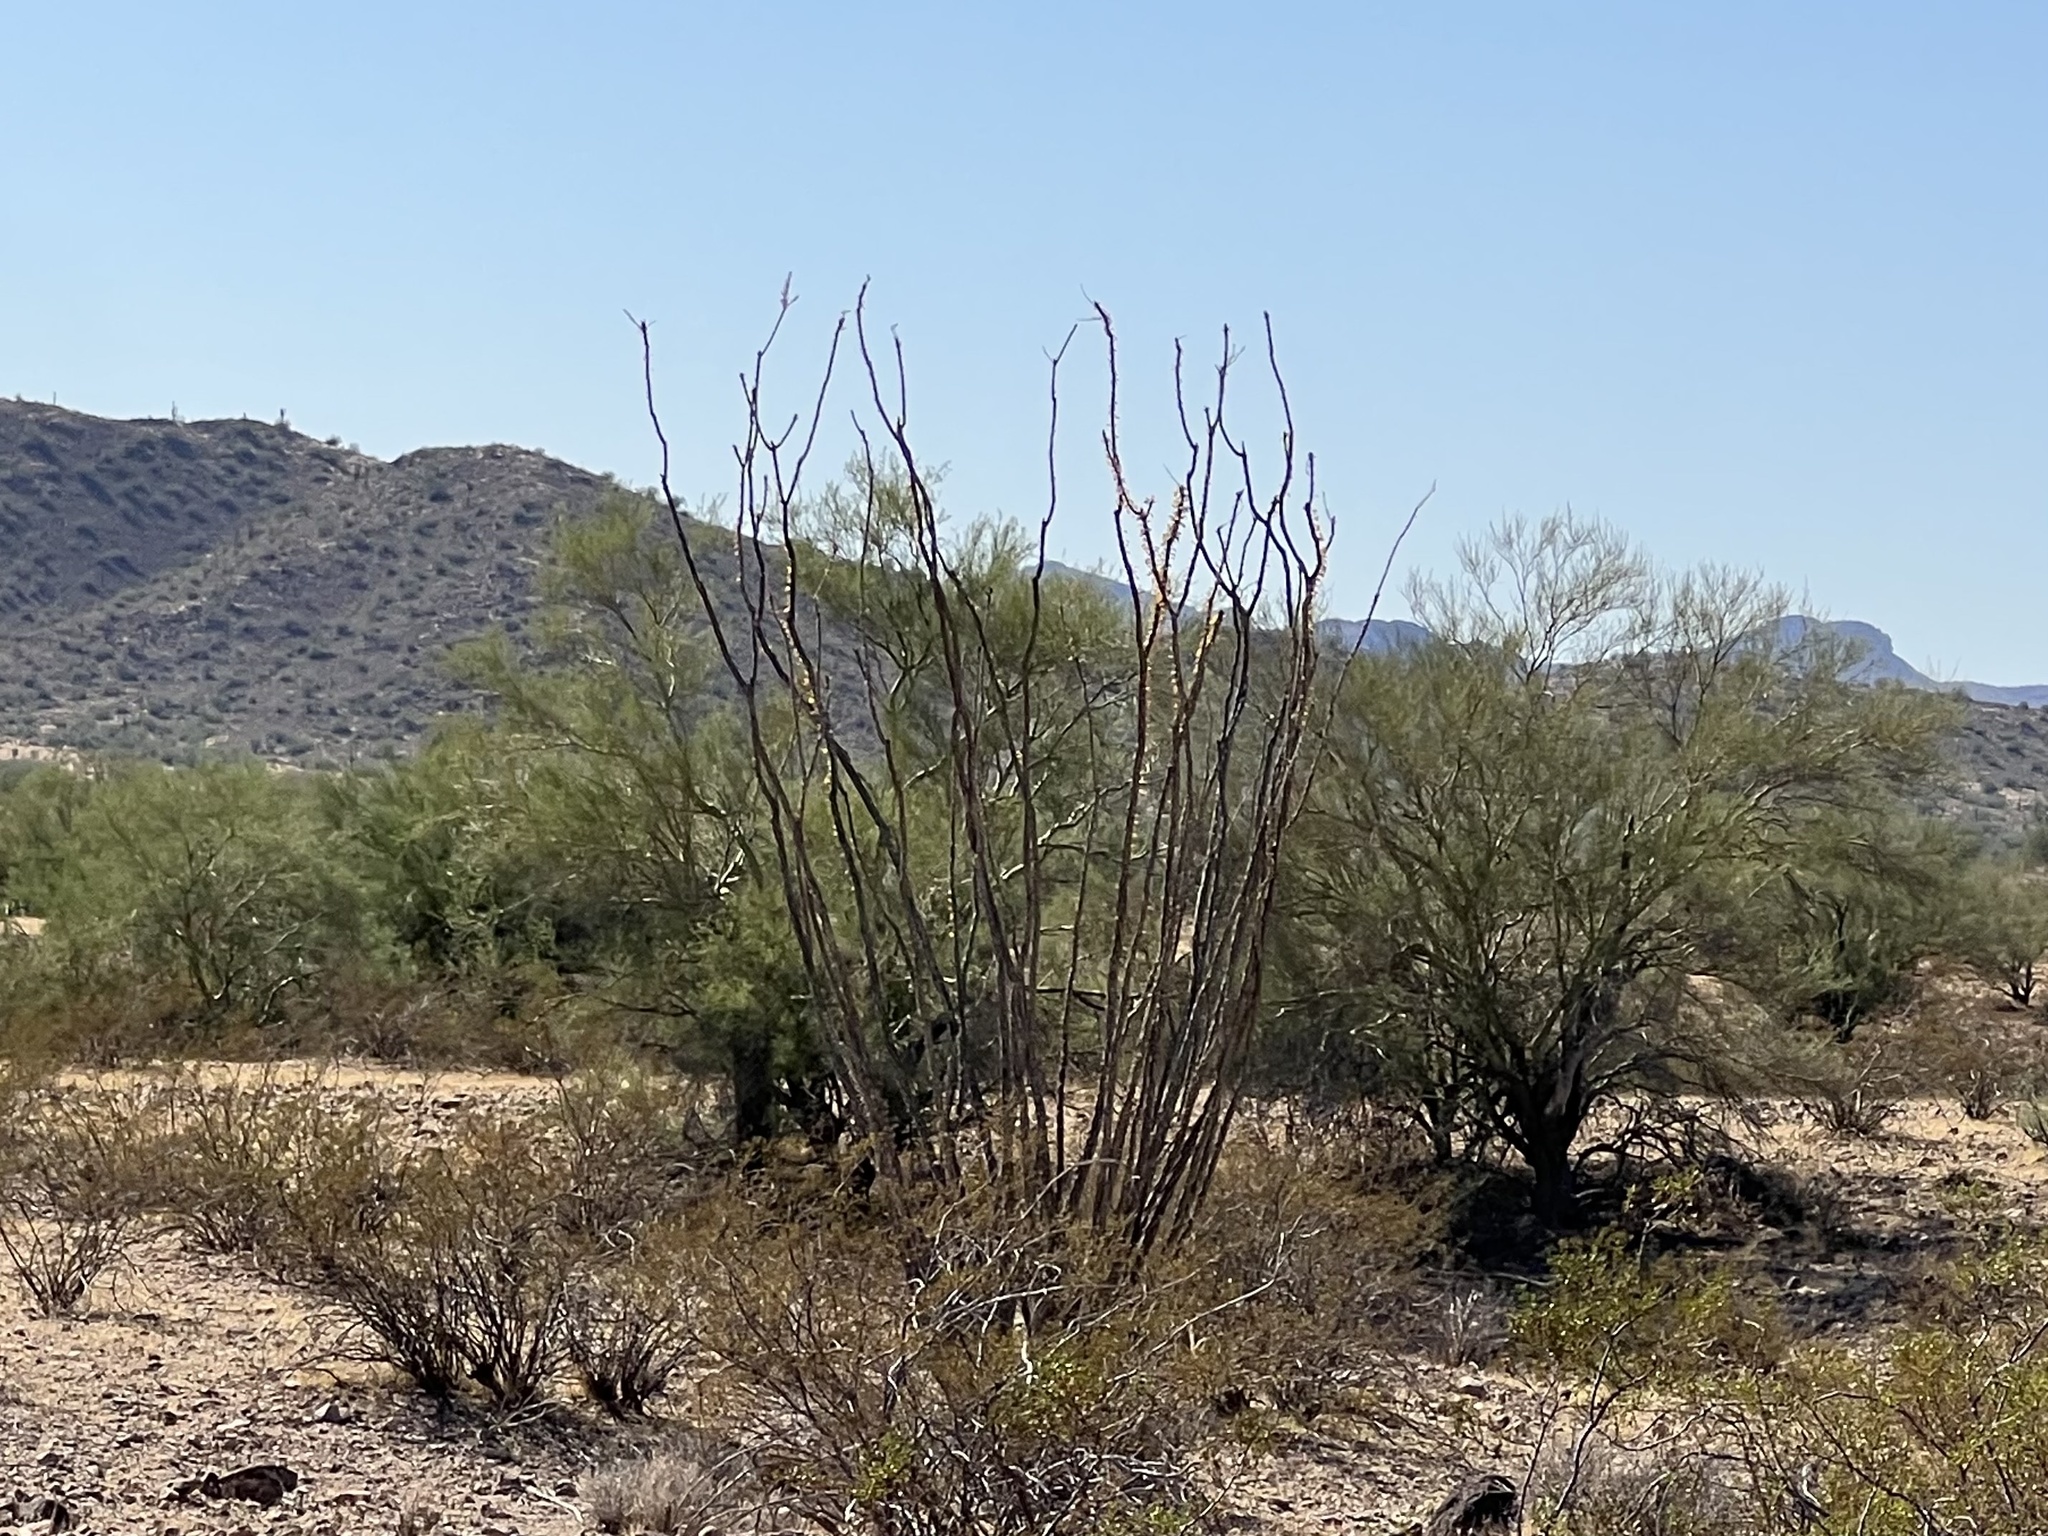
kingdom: Plantae
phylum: Tracheophyta
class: Magnoliopsida
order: Ericales
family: Fouquieriaceae
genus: Fouquieria
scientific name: Fouquieria splendens
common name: Vine-cactus
